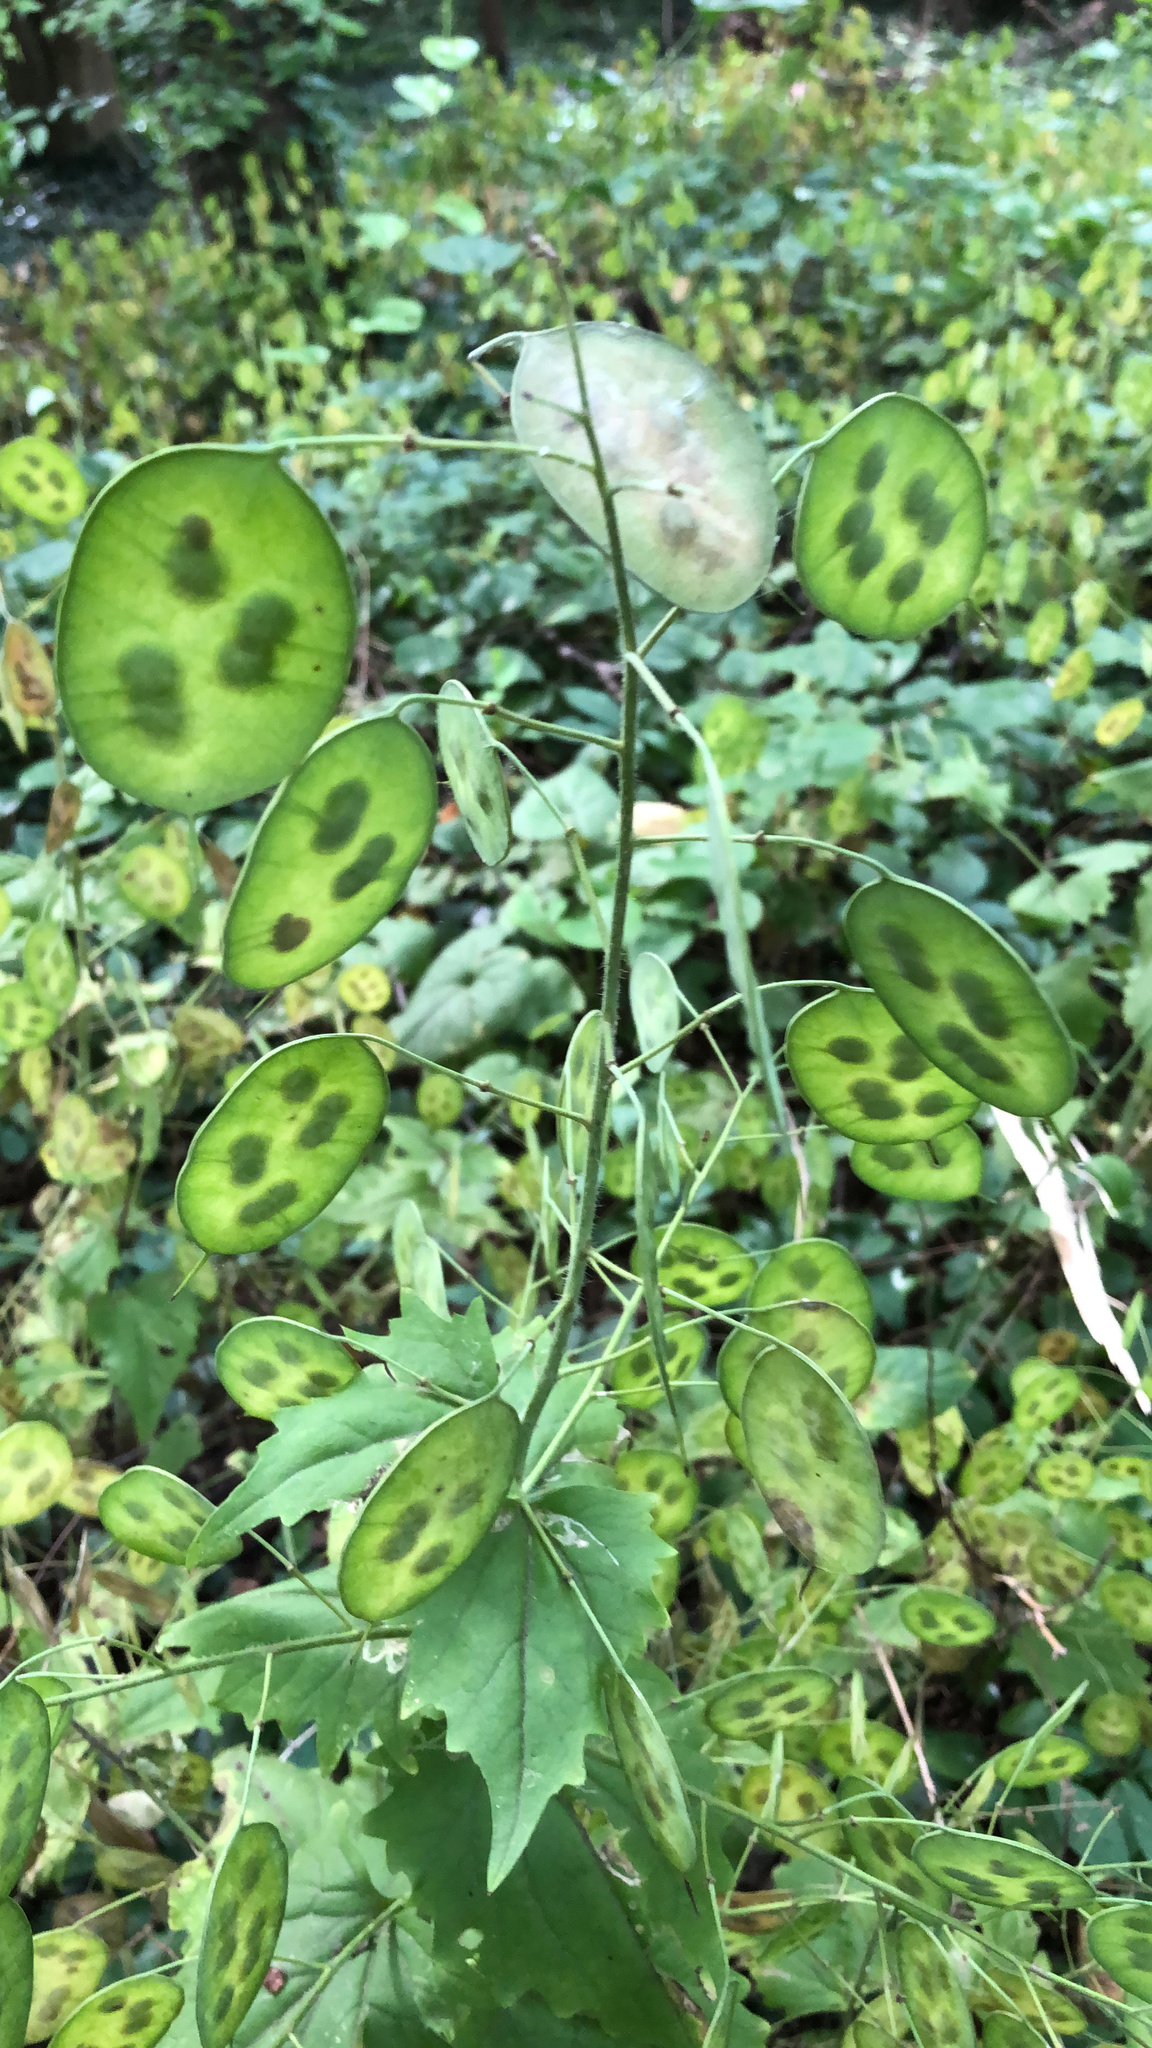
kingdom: Plantae
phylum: Tracheophyta
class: Magnoliopsida
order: Brassicales
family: Brassicaceae
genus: Lunaria
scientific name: Lunaria annua
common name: Honesty
